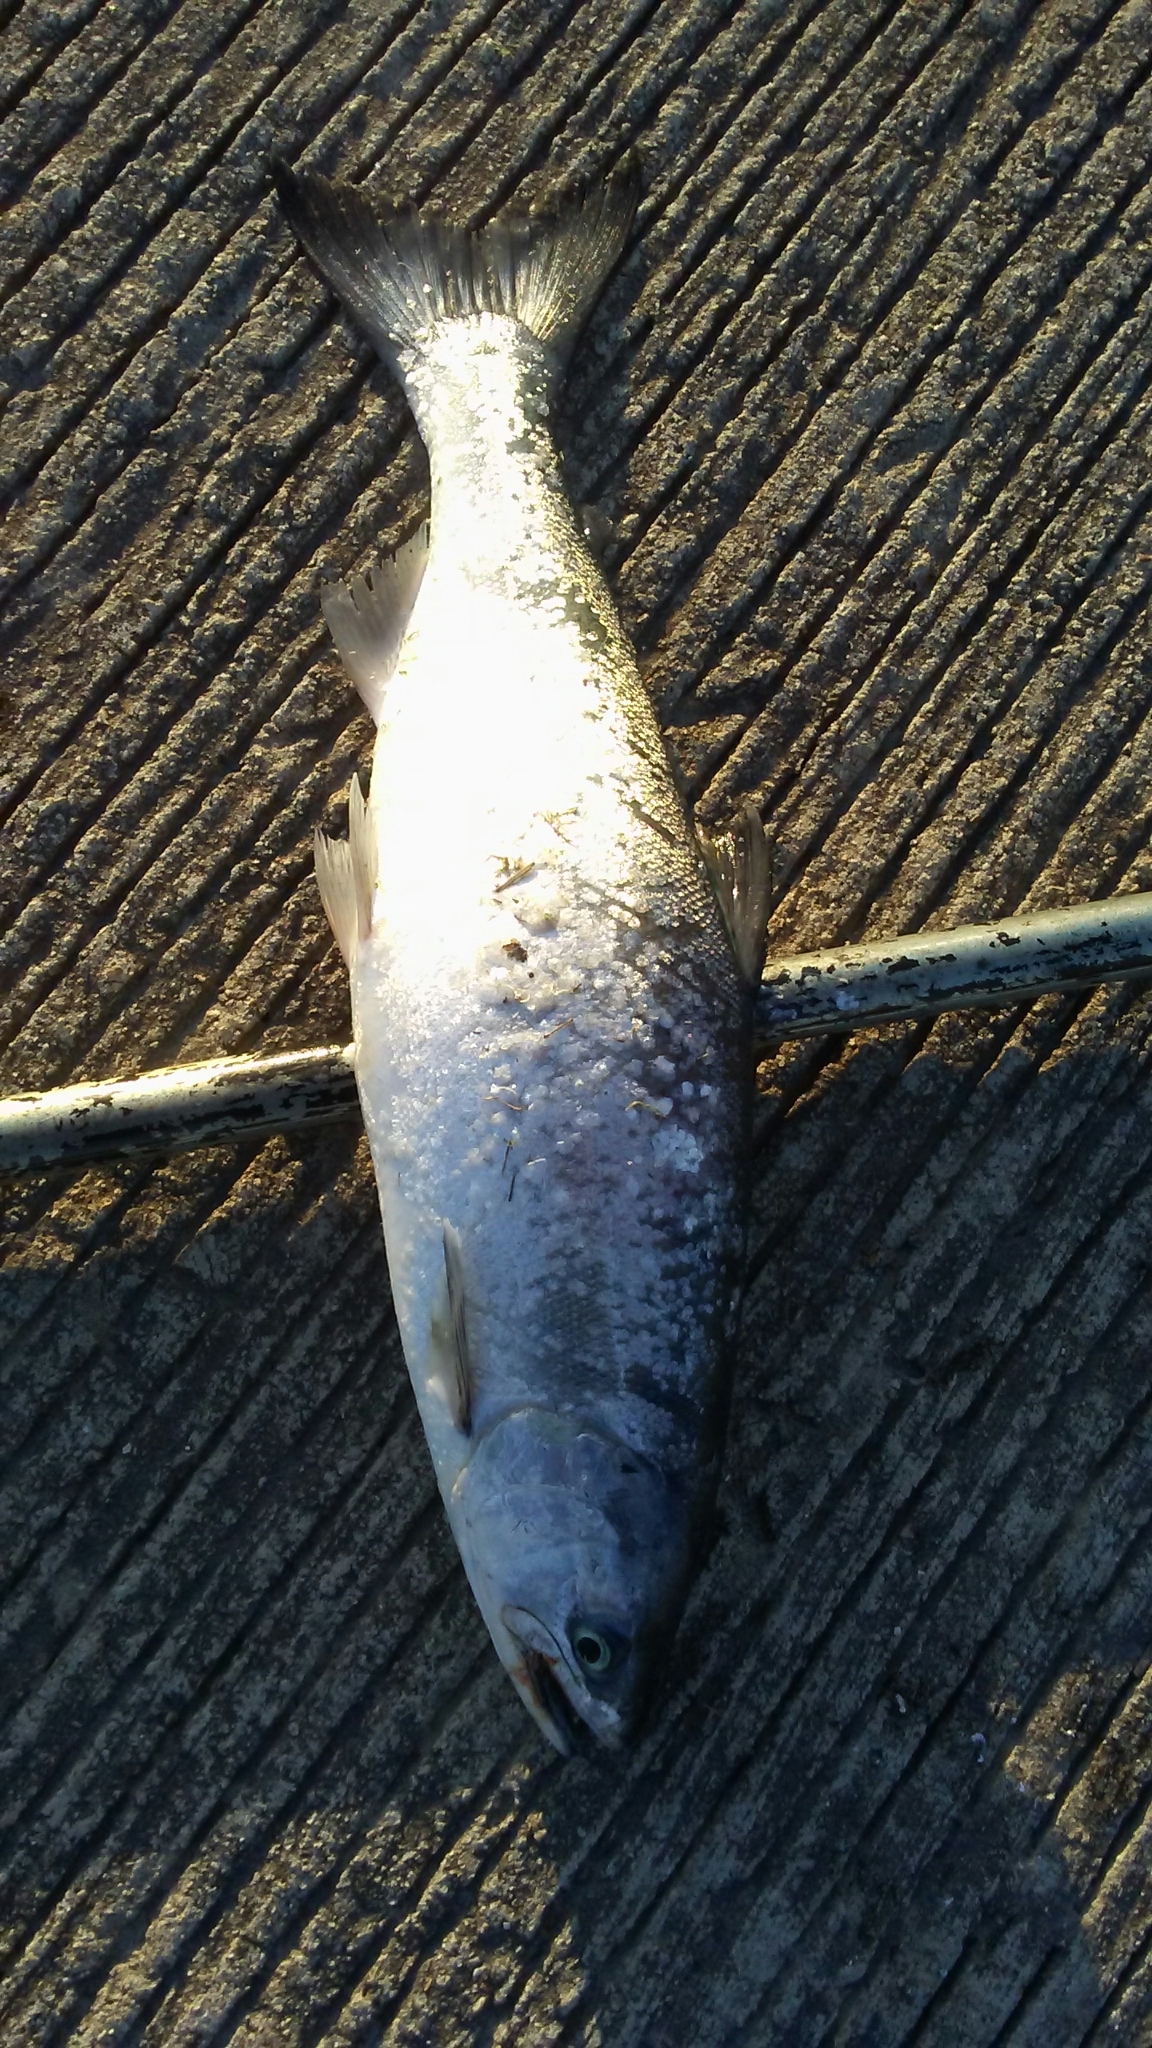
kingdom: Animalia
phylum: Chordata
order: Salmoniformes
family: Salmonidae
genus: Oncorhynchus
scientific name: Oncorhynchus kisutch
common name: Coho salmon
